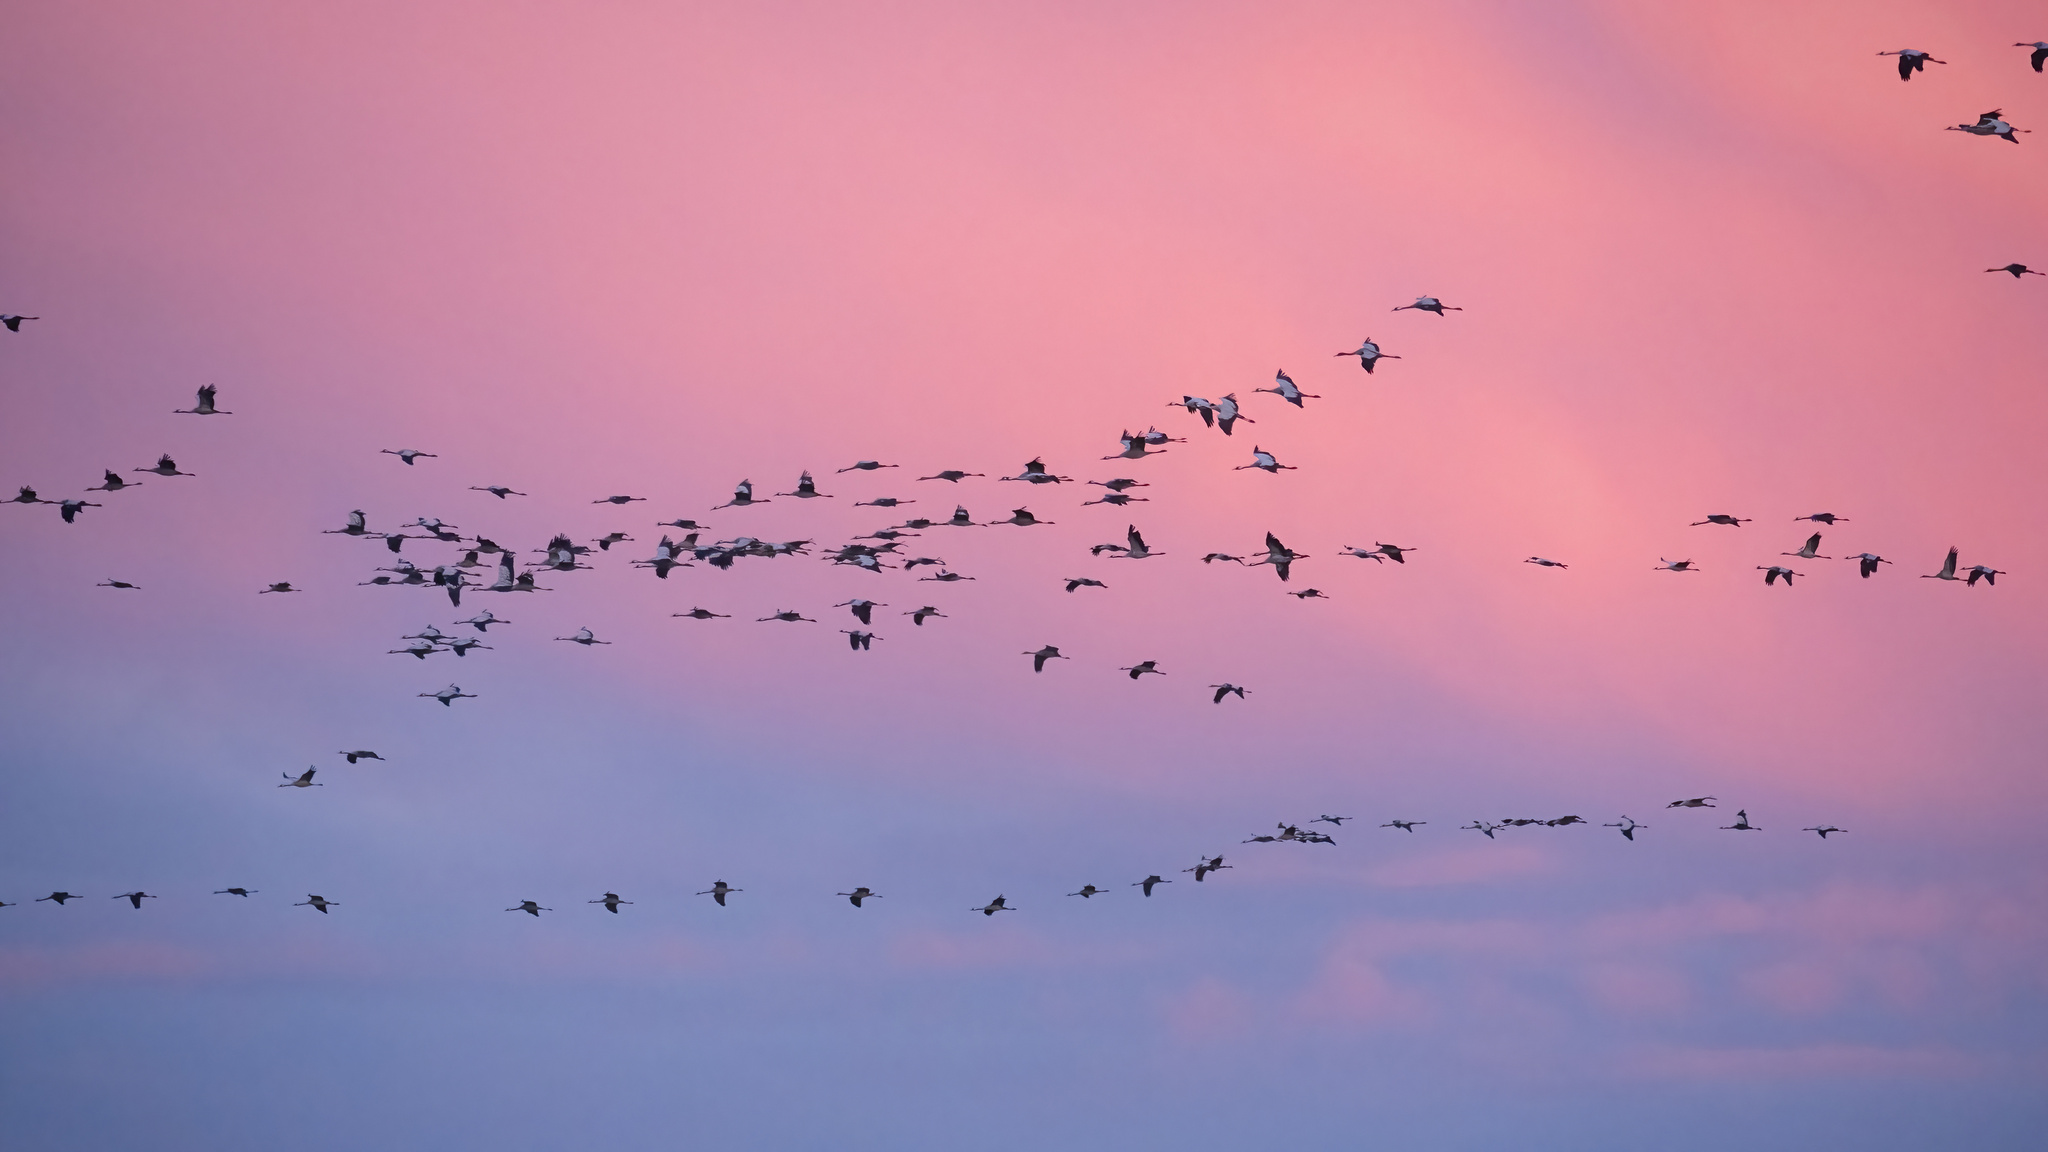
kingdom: Animalia
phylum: Chordata
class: Aves
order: Gruiformes
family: Gruidae
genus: Grus
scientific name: Grus grus
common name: Common crane
